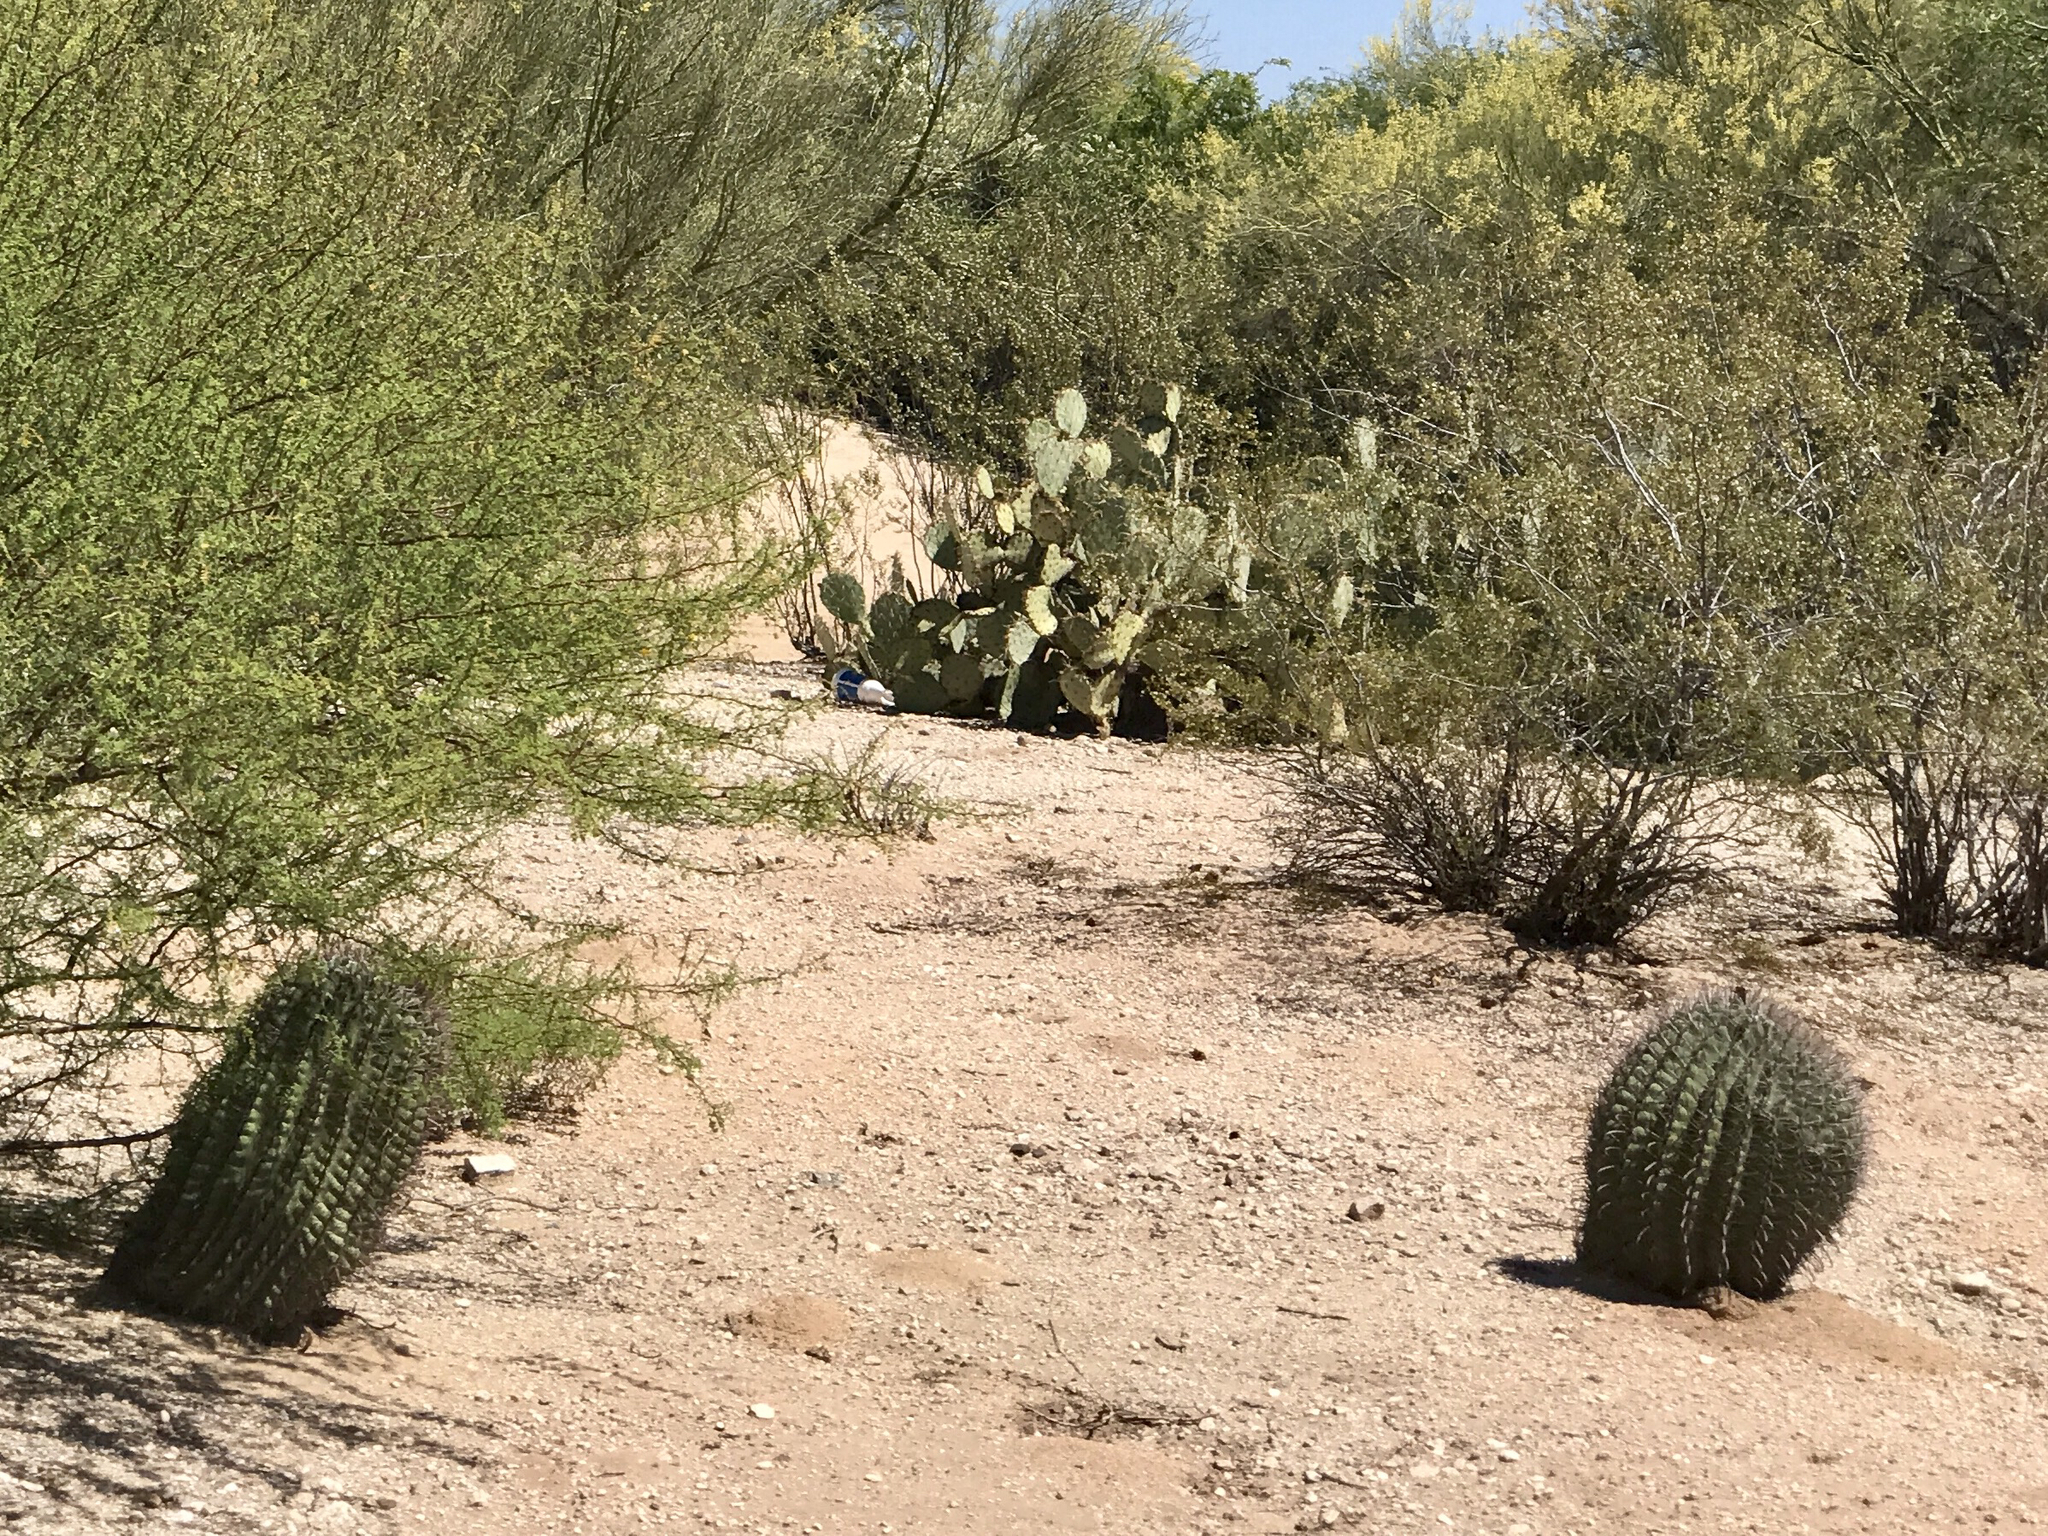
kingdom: Plantae
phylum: Tracheophyta
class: Magnoliopsida
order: Caryophyllales
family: Cactaceae
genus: Ferocactus
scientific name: Ferocactus wislizeni
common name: Candy barrel cactus
